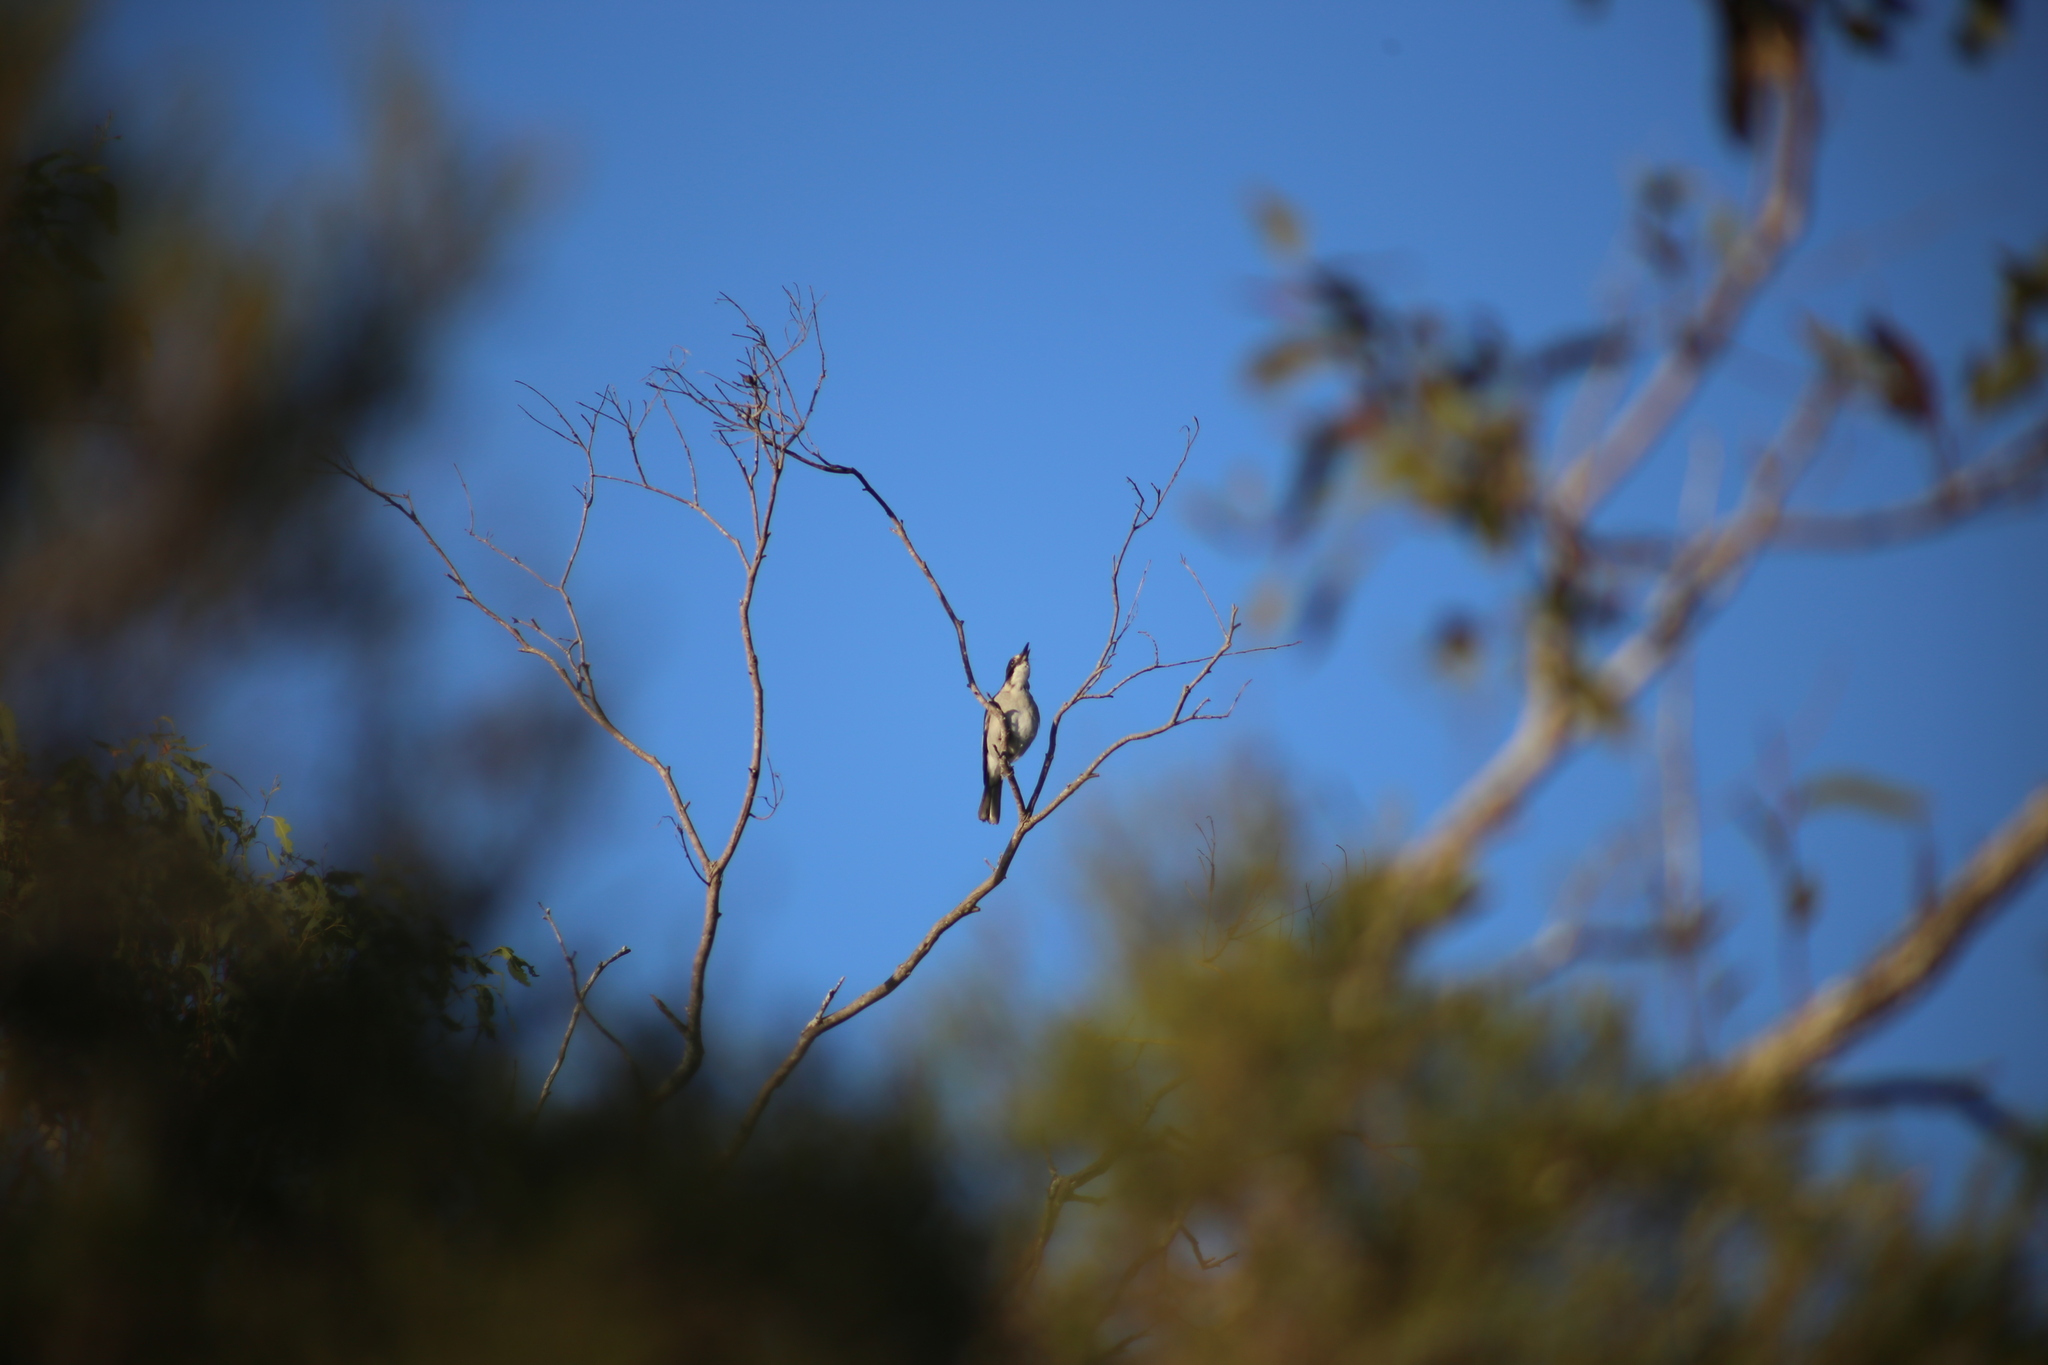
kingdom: Animalia
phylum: Chordata
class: Aves
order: Passeriformes
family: Cracticidae
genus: Cracticus
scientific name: Cracticus torquatus
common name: Grey butcherbird
